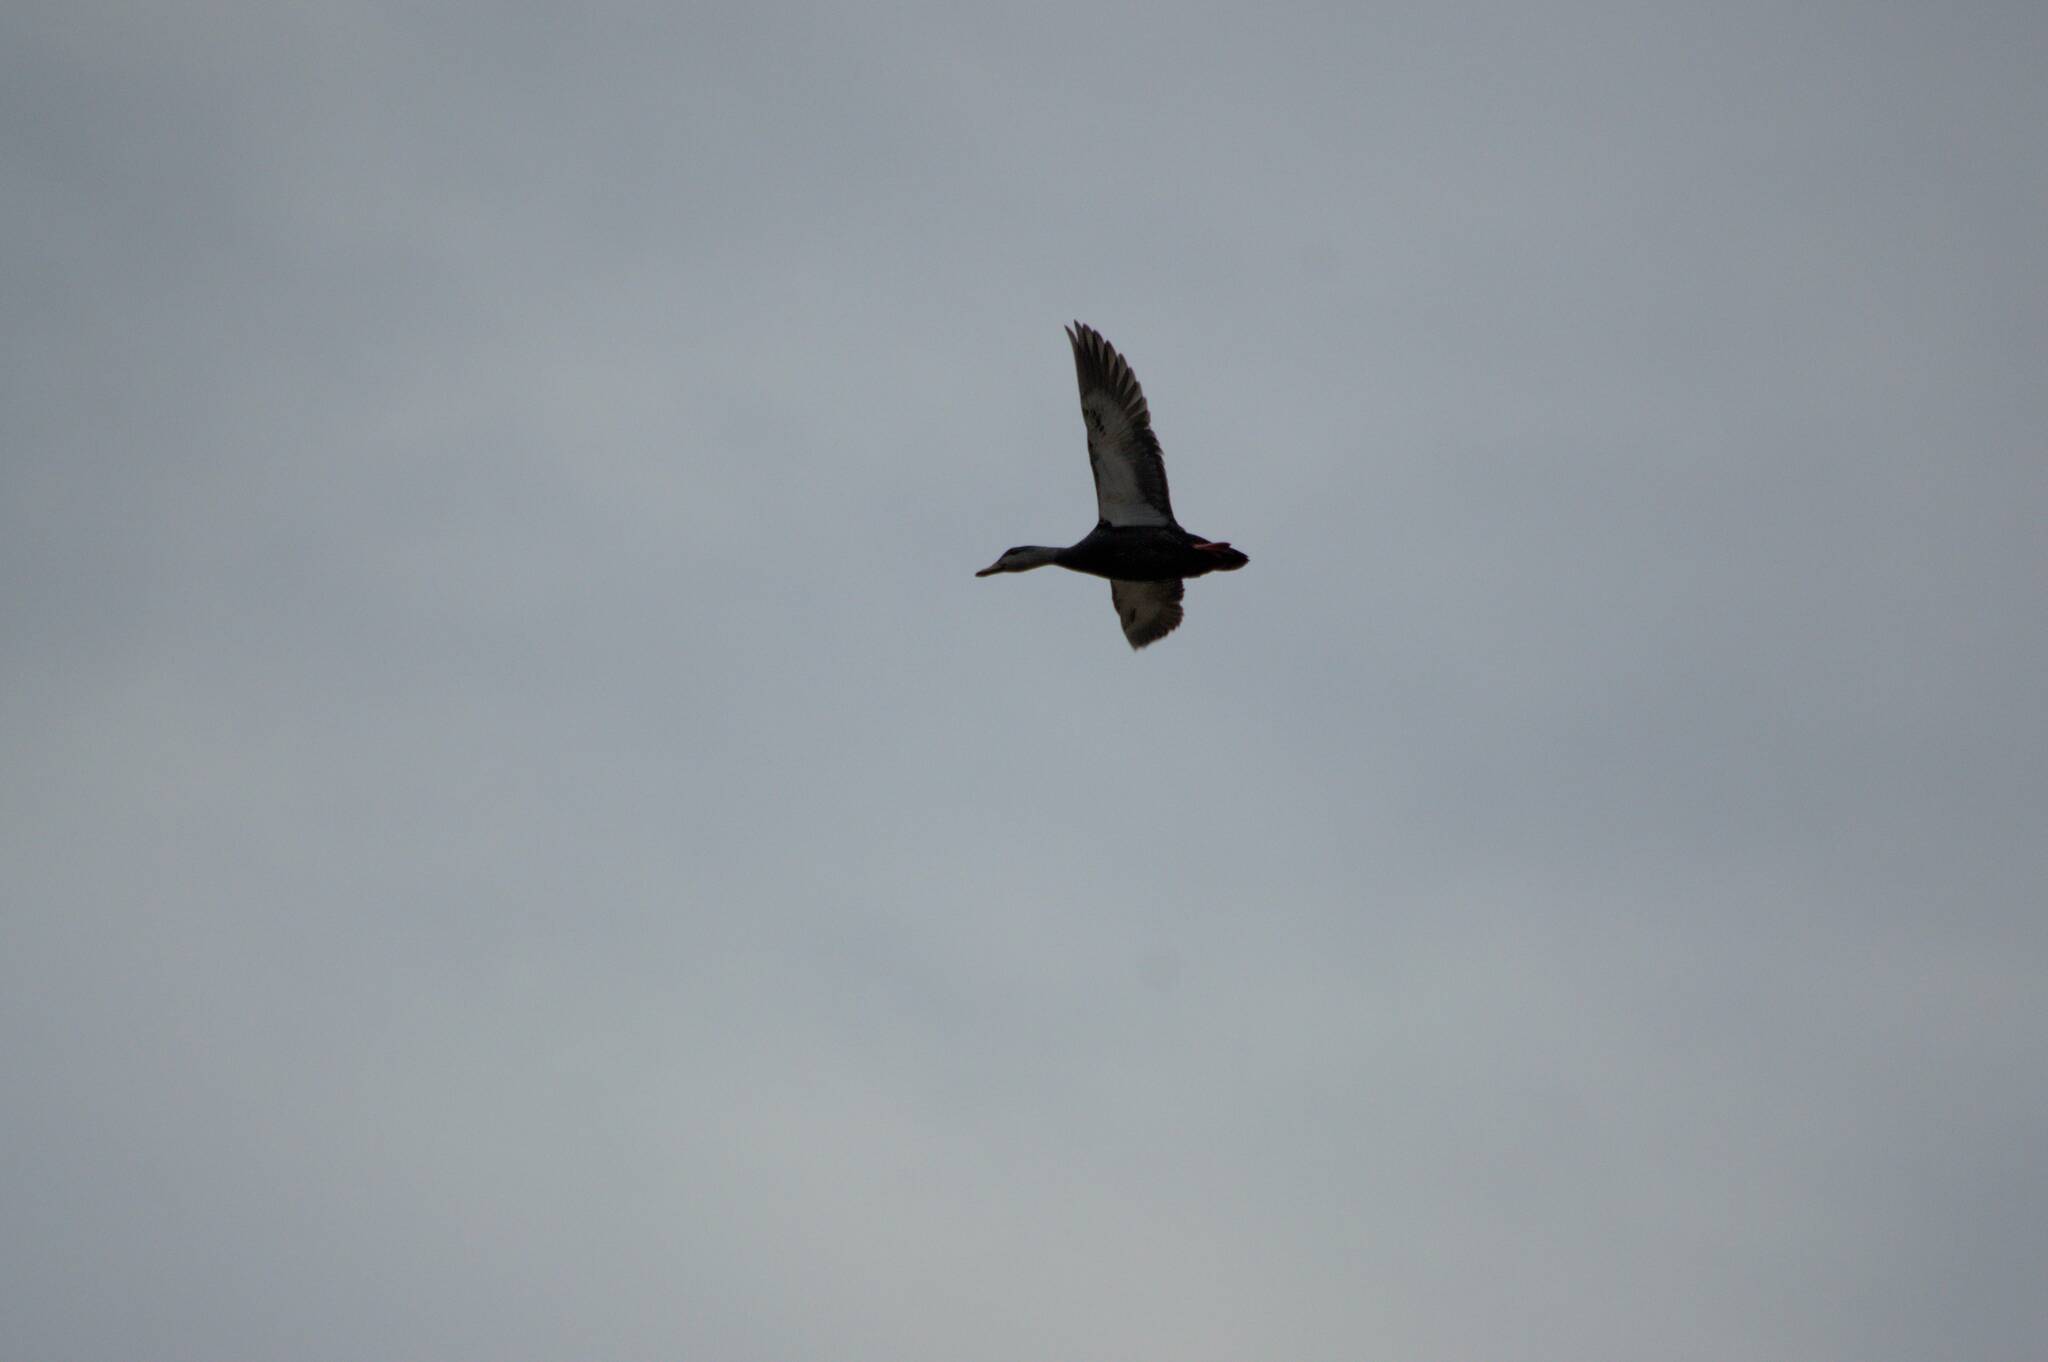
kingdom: Animalia
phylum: Chordata
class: Aves
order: Anseriformes
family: Anatidae
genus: Anas
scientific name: Anas rubripes
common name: American black duck
